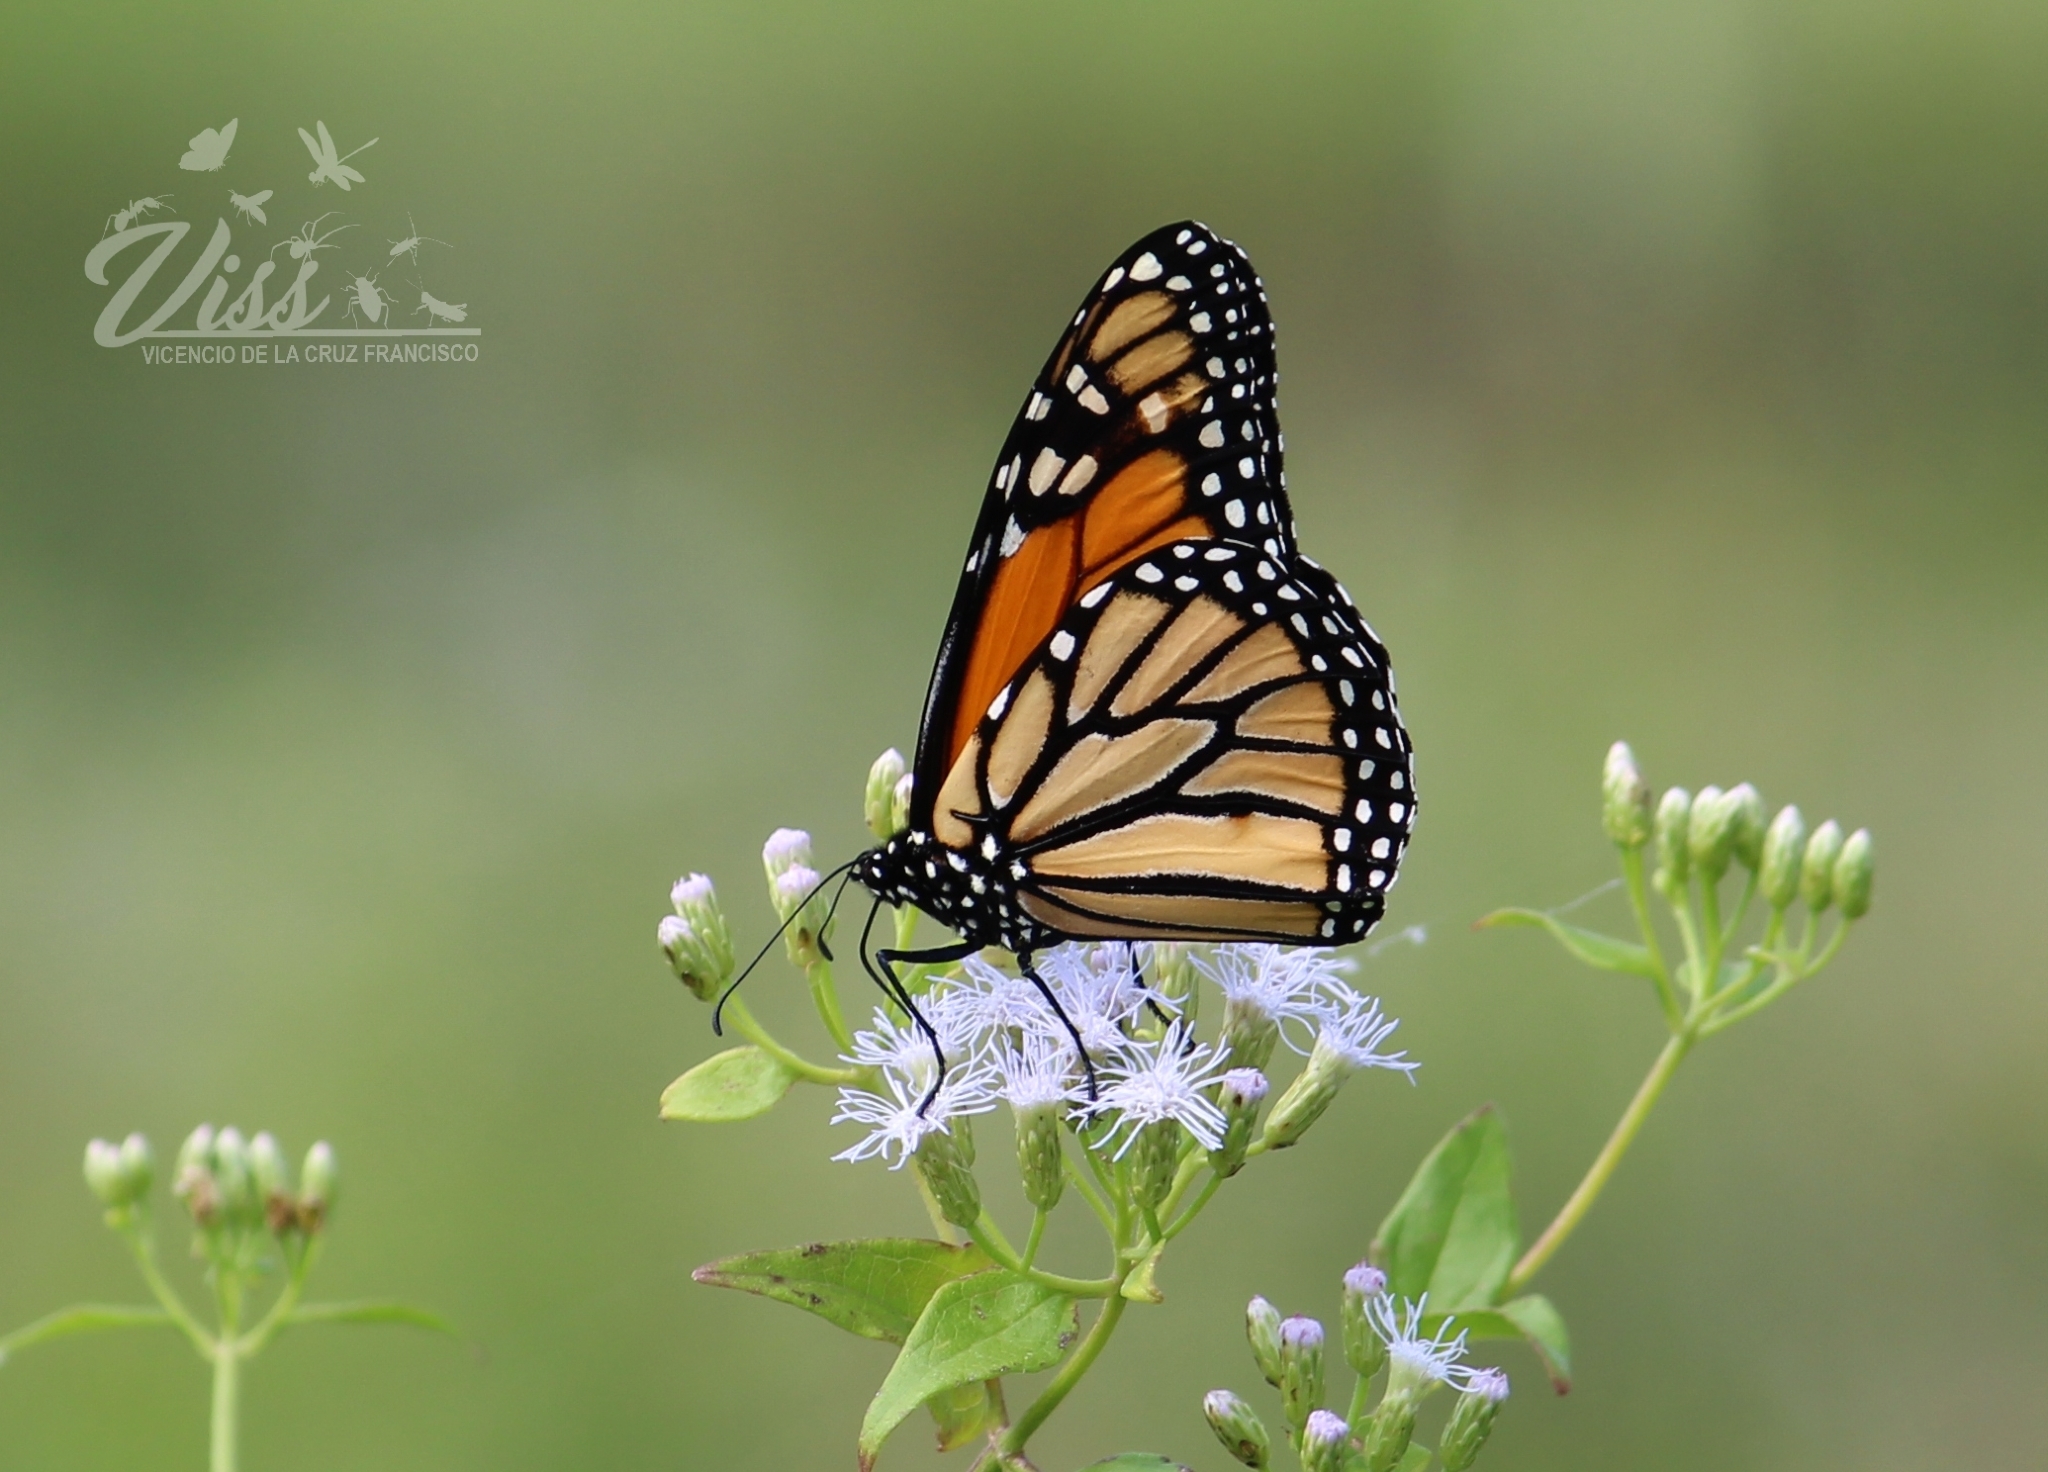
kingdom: Animalia
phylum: Arthropoda
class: Insecta
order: Lepidoptera
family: Nymphalidae
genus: Danaus
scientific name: Danaus plexippus
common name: Monarch
